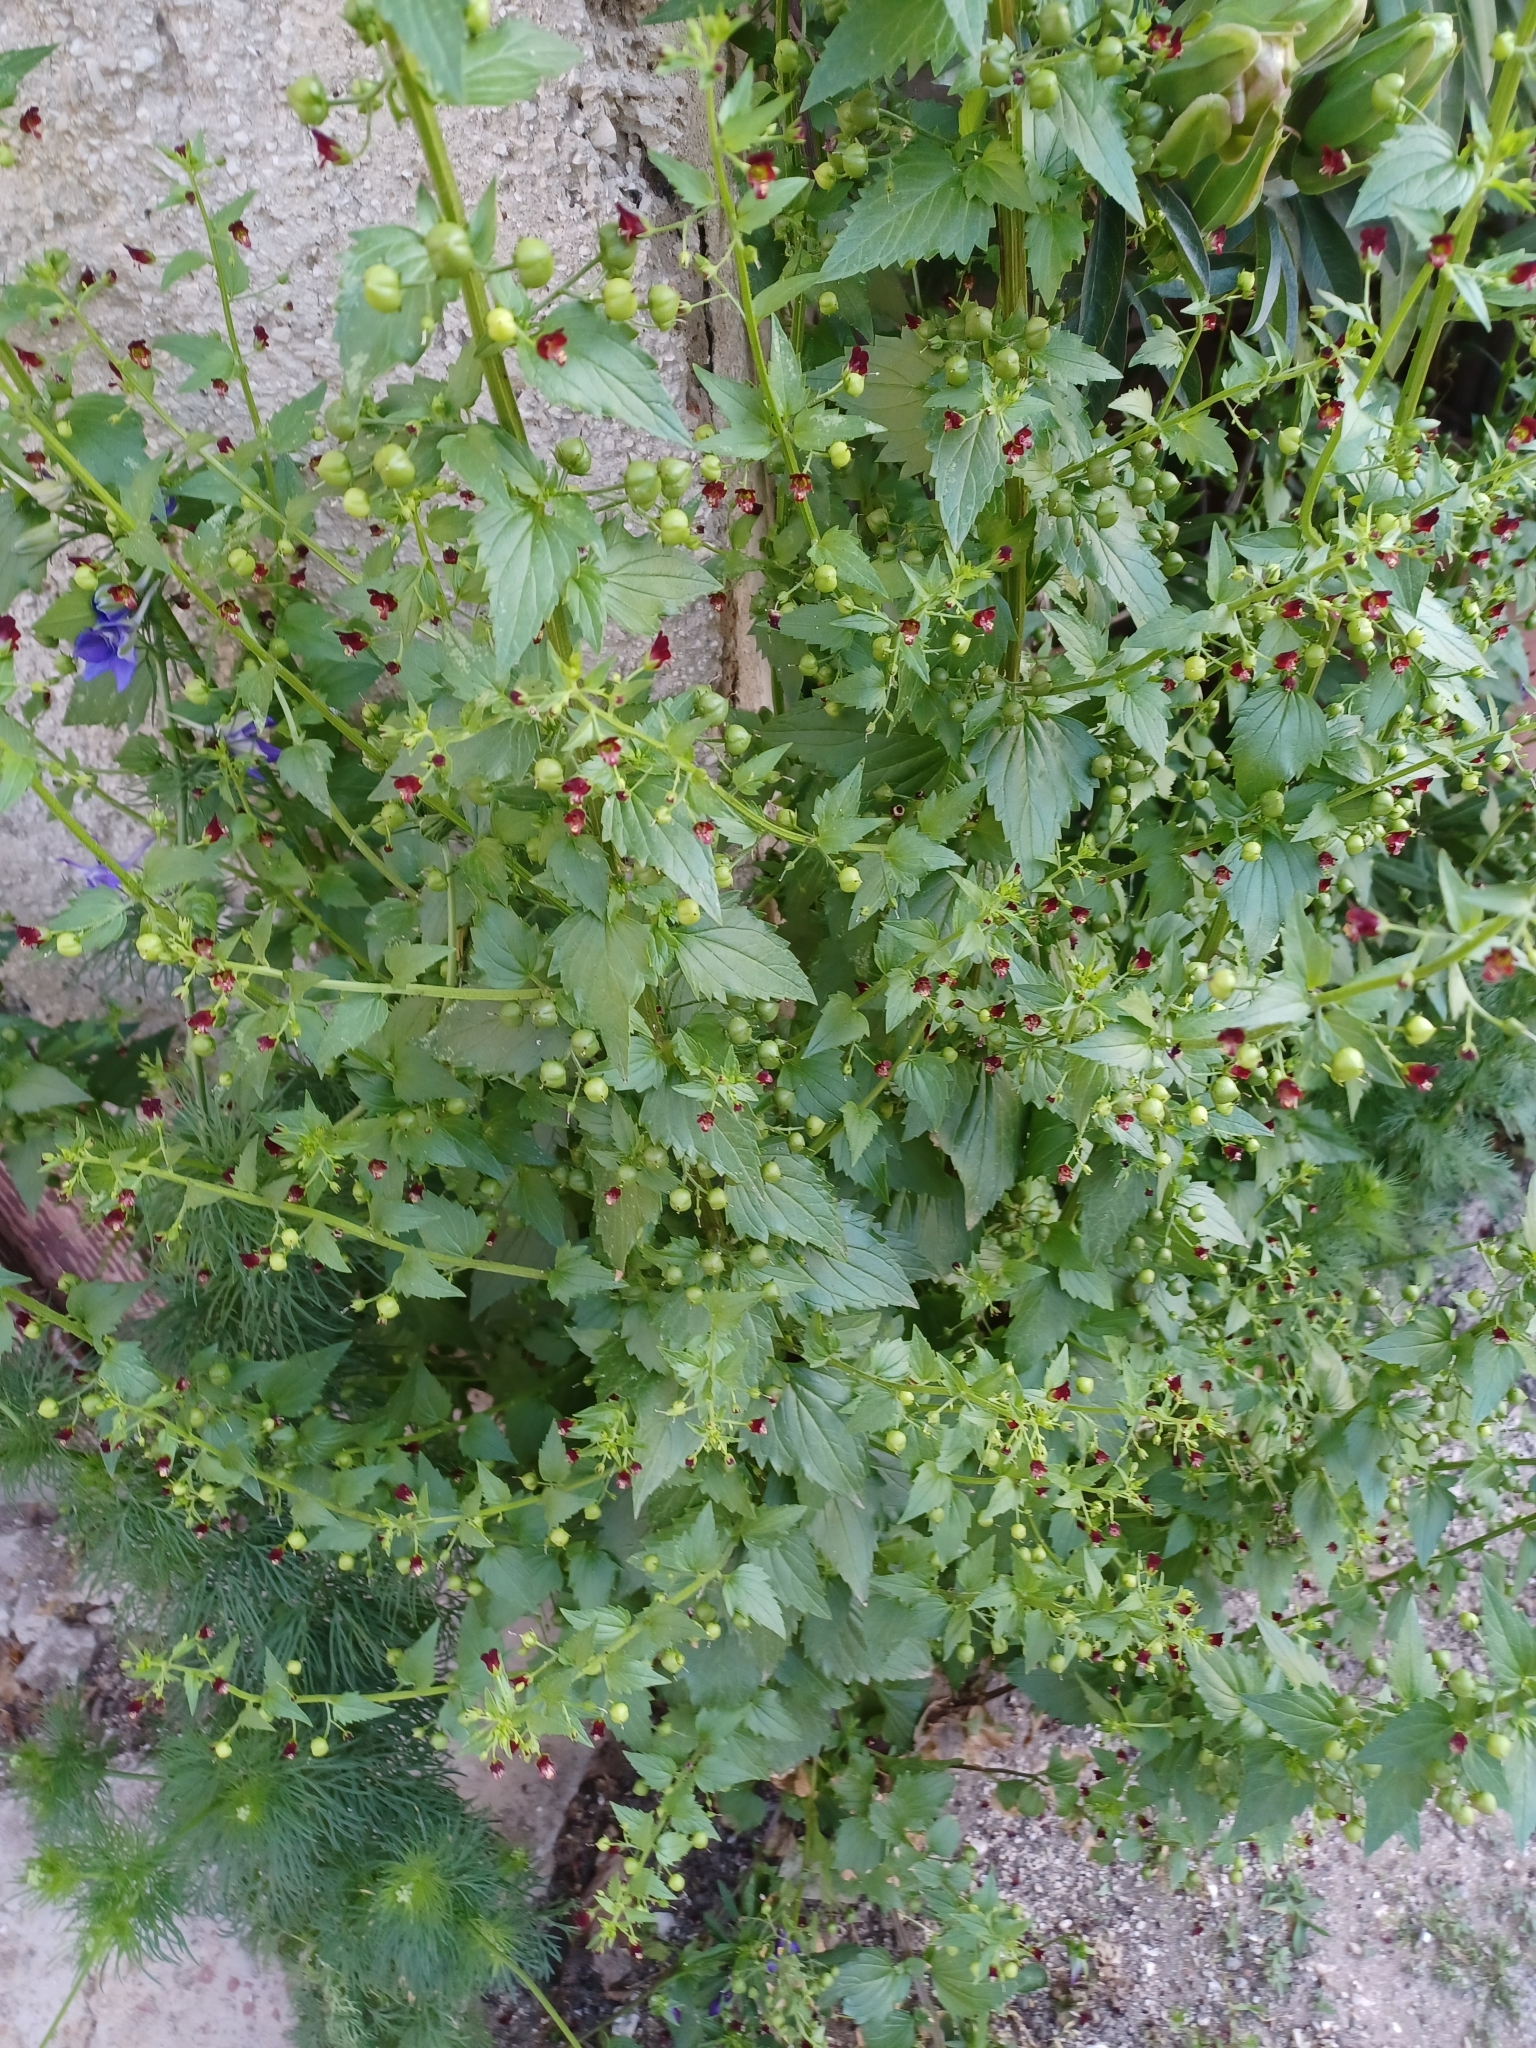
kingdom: Plantae
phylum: Tracheophyta
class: Magnoliopsida
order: Lamiales
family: Scrophulariaceae
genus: Scrophularia
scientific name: Scrophularia peregrina
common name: Mediterranean figwort
